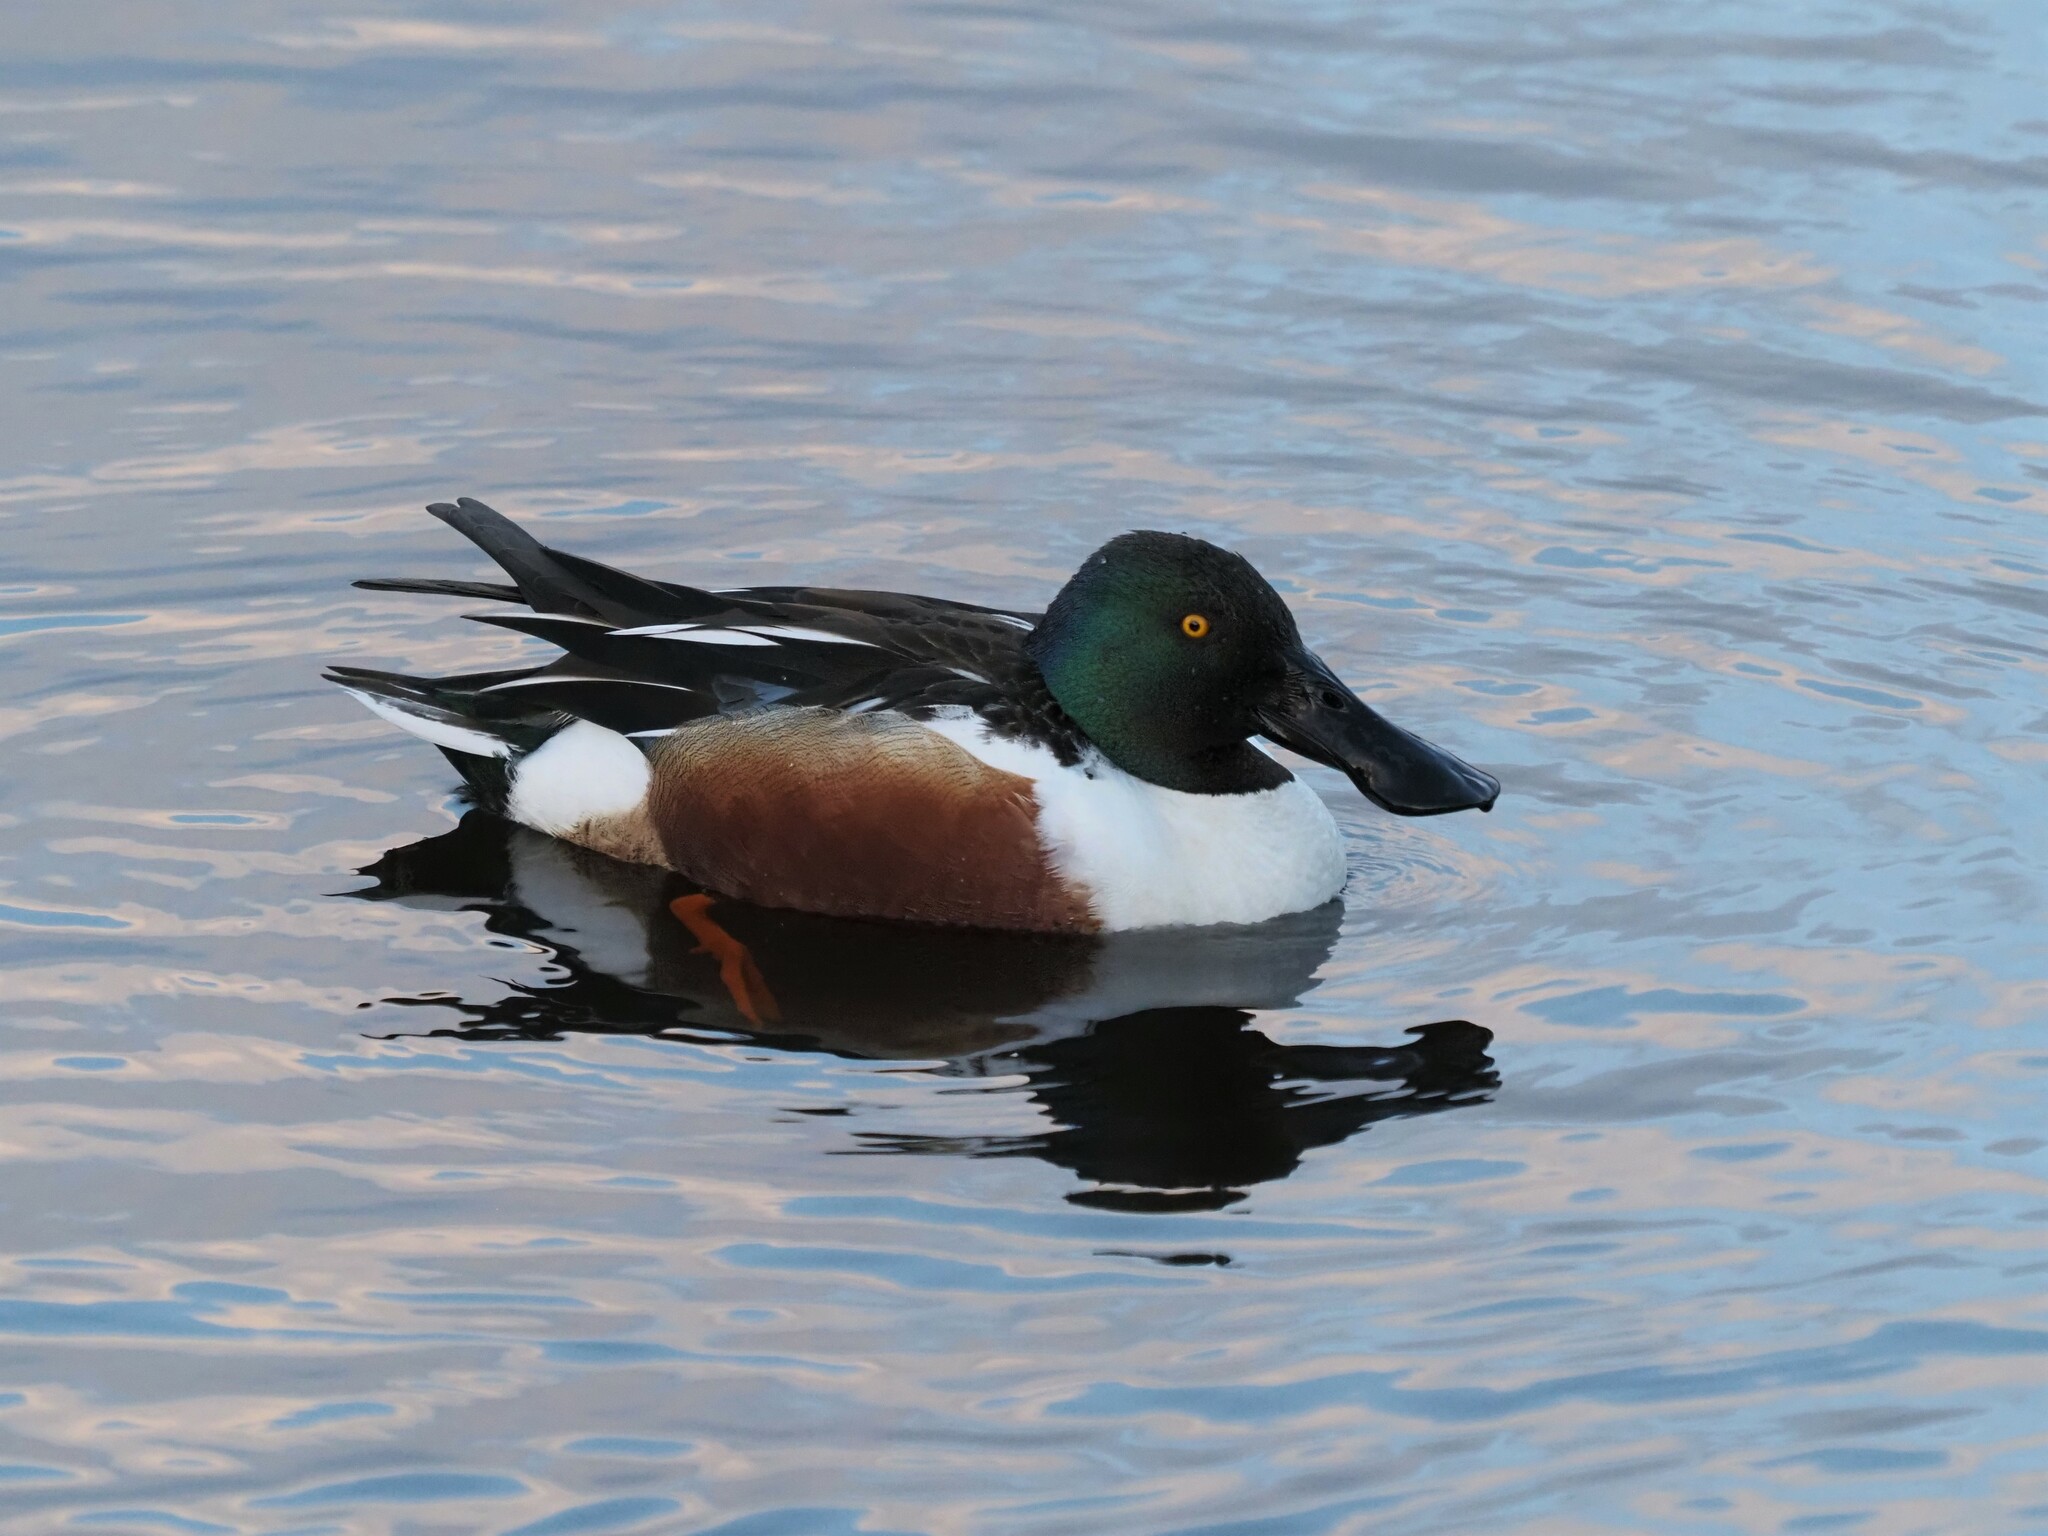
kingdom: Animalia
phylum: Chordata
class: Aves
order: Anseriformes
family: Anatidae
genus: Spatula
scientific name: Spatula clypeata
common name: Northern shoveler
